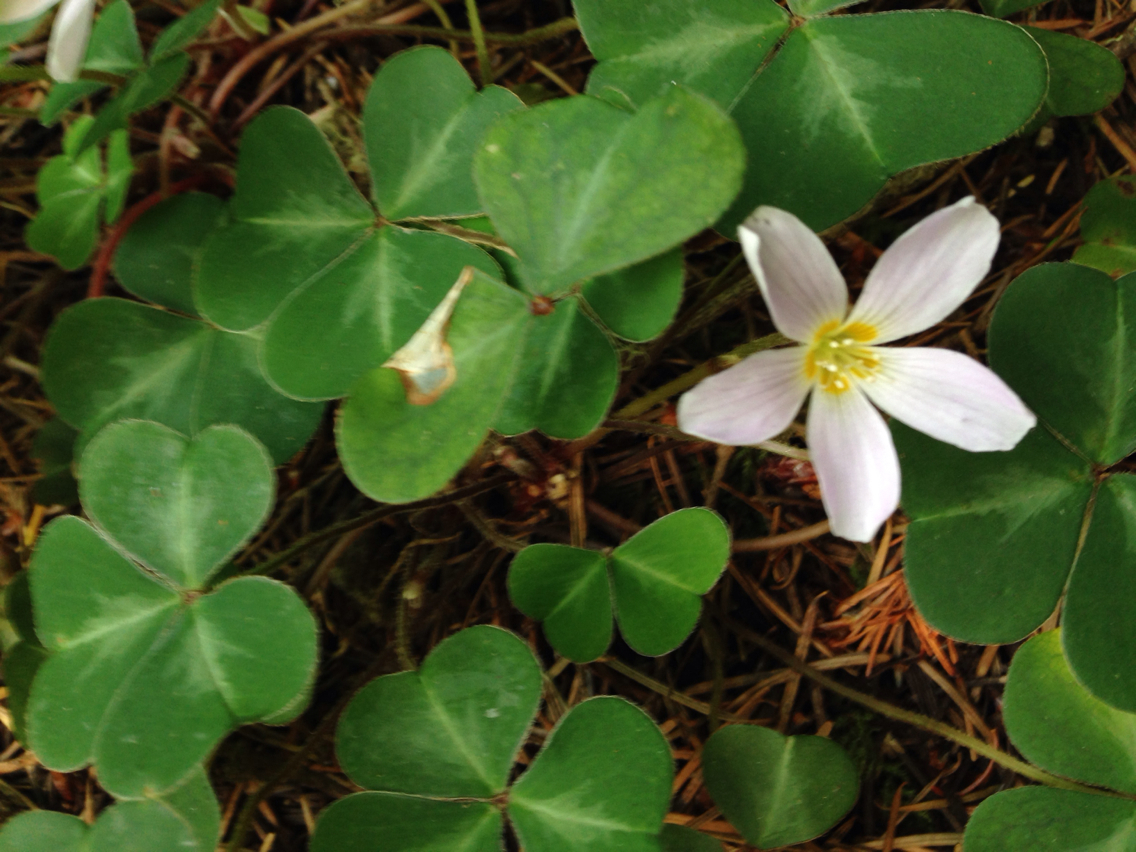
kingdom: Plantae
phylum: Tracheophyta
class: Magnoliopsida
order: Oxalidales
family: Oxalidaceae
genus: Oxalis
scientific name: Oxalis oregana
